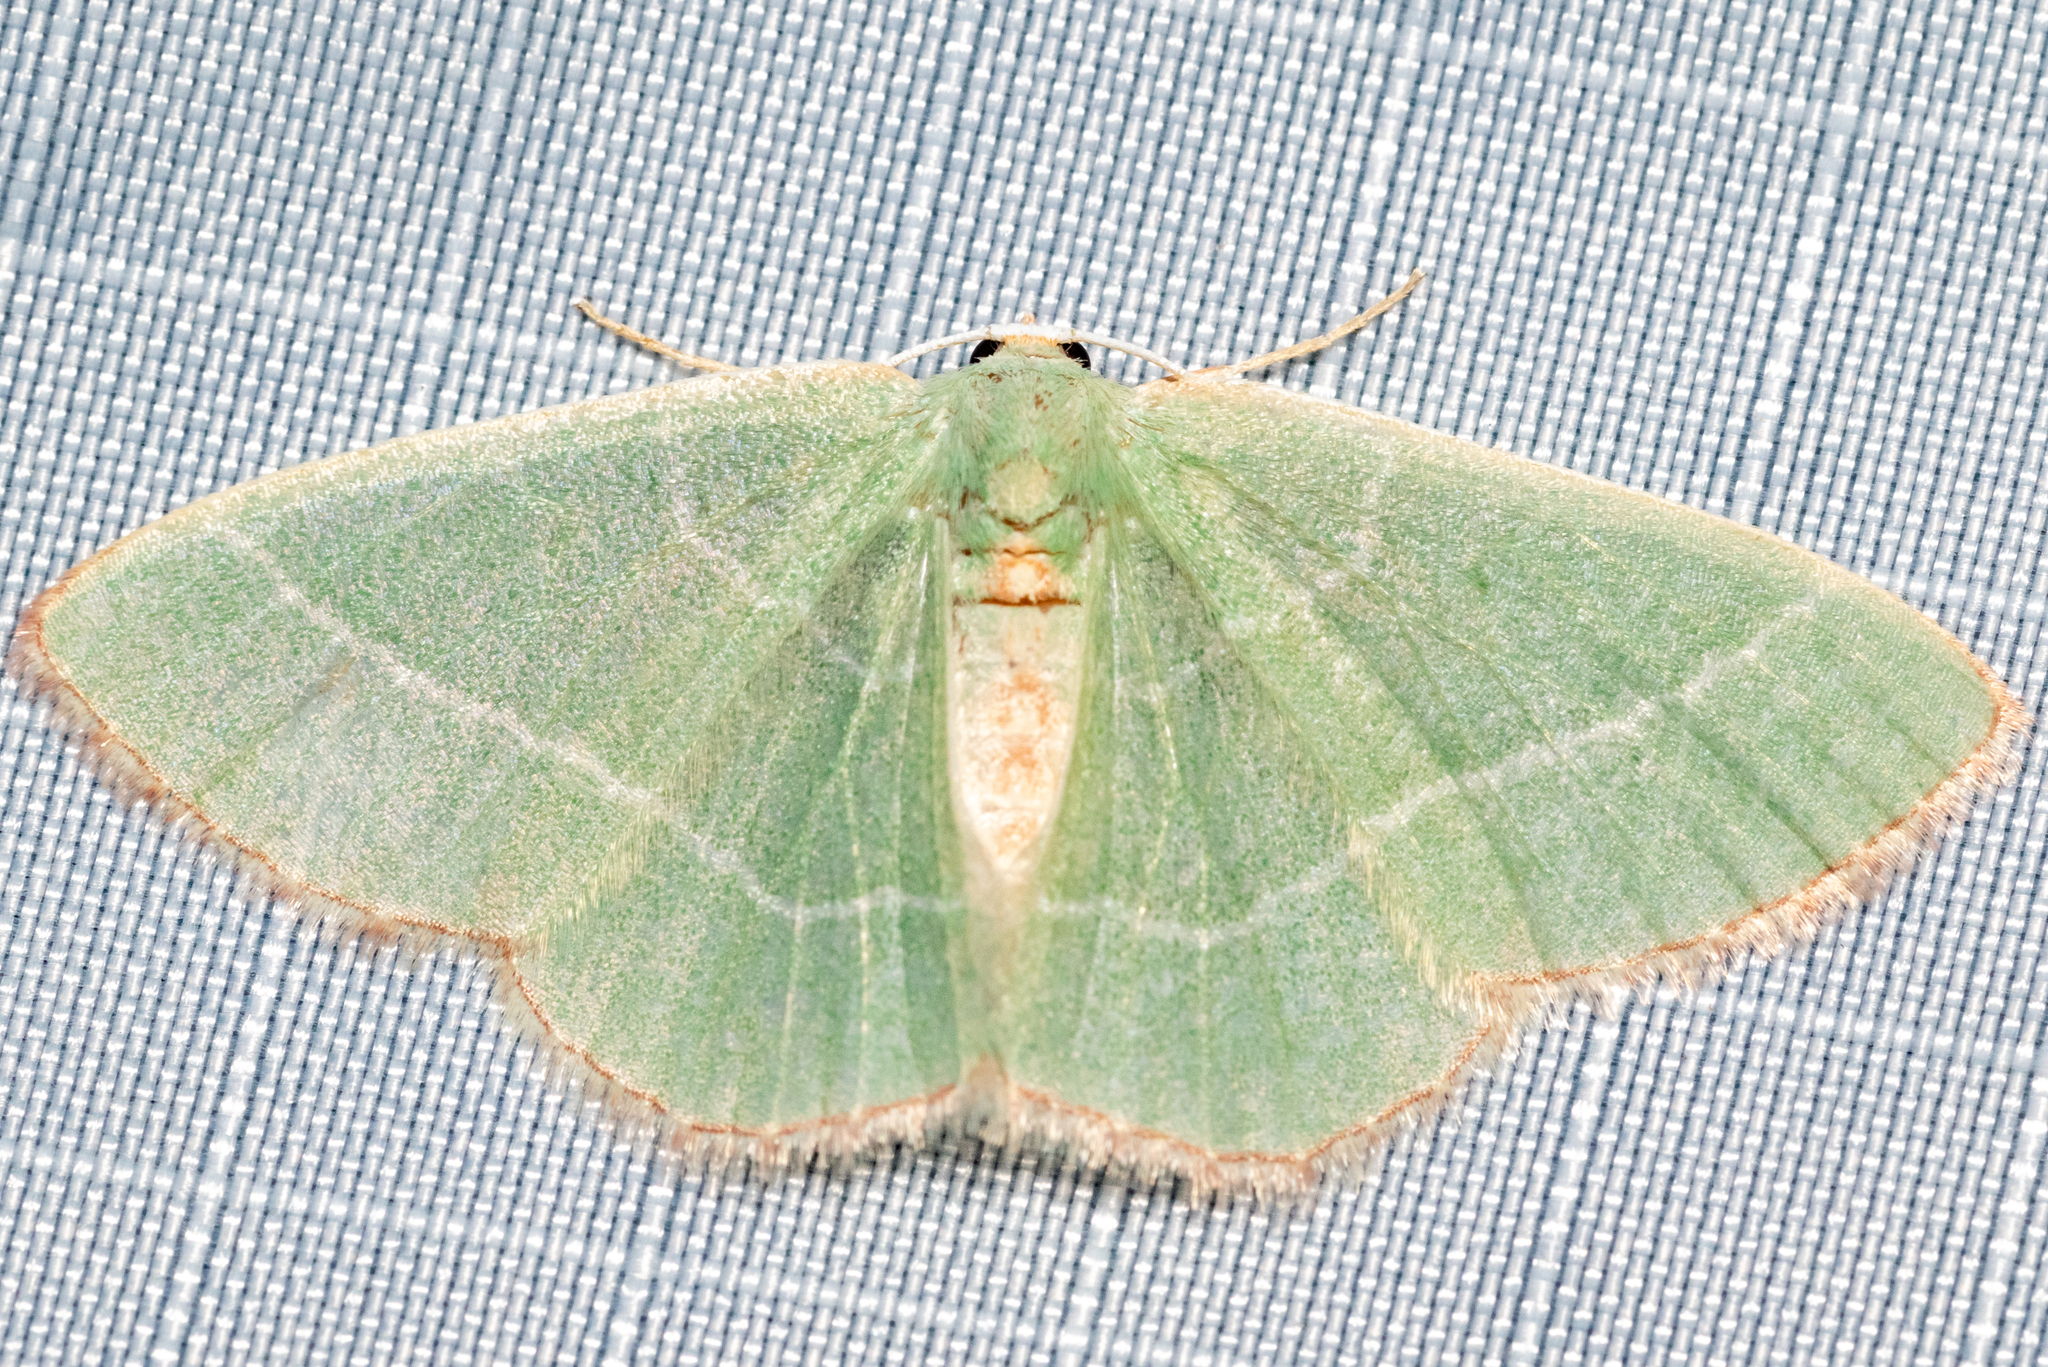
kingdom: Animalia
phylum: Arthropoda
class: Insecta
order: Lepidoptera
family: Geometridae
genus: Nemoria
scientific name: Nemoria bistriaria
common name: Red-fringed emerald
